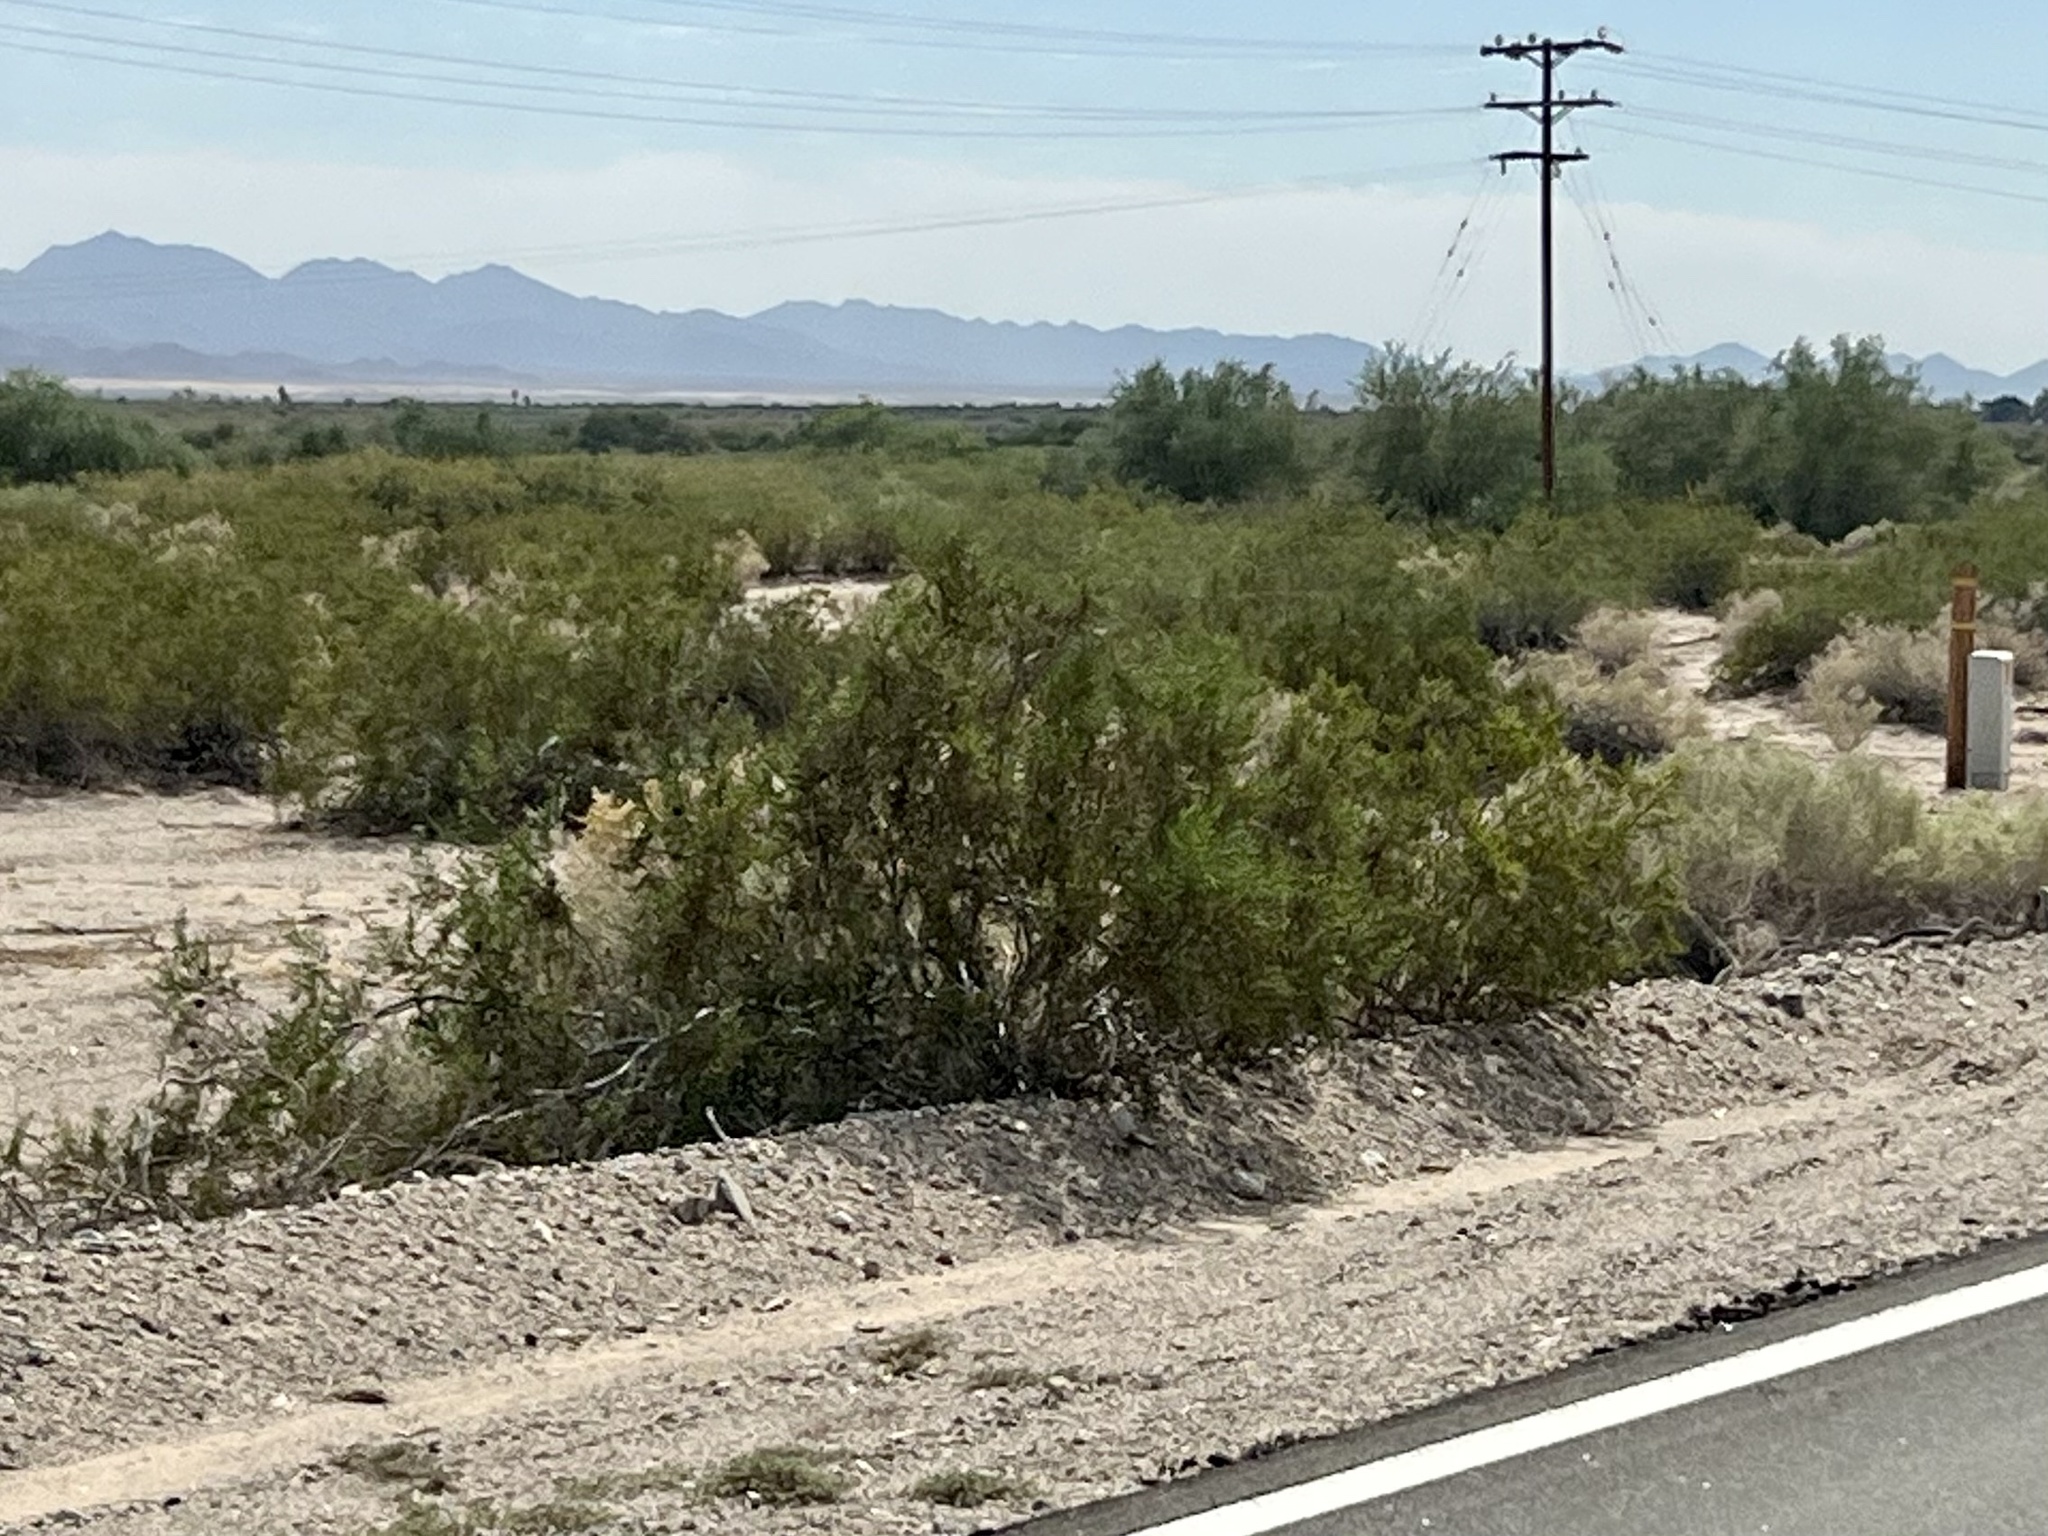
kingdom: Plantae
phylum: Tracheophyta
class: Magnoliopsida
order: Zygophyllales
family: Zygophyllaceae
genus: Larrea
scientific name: Larrea tridentata
